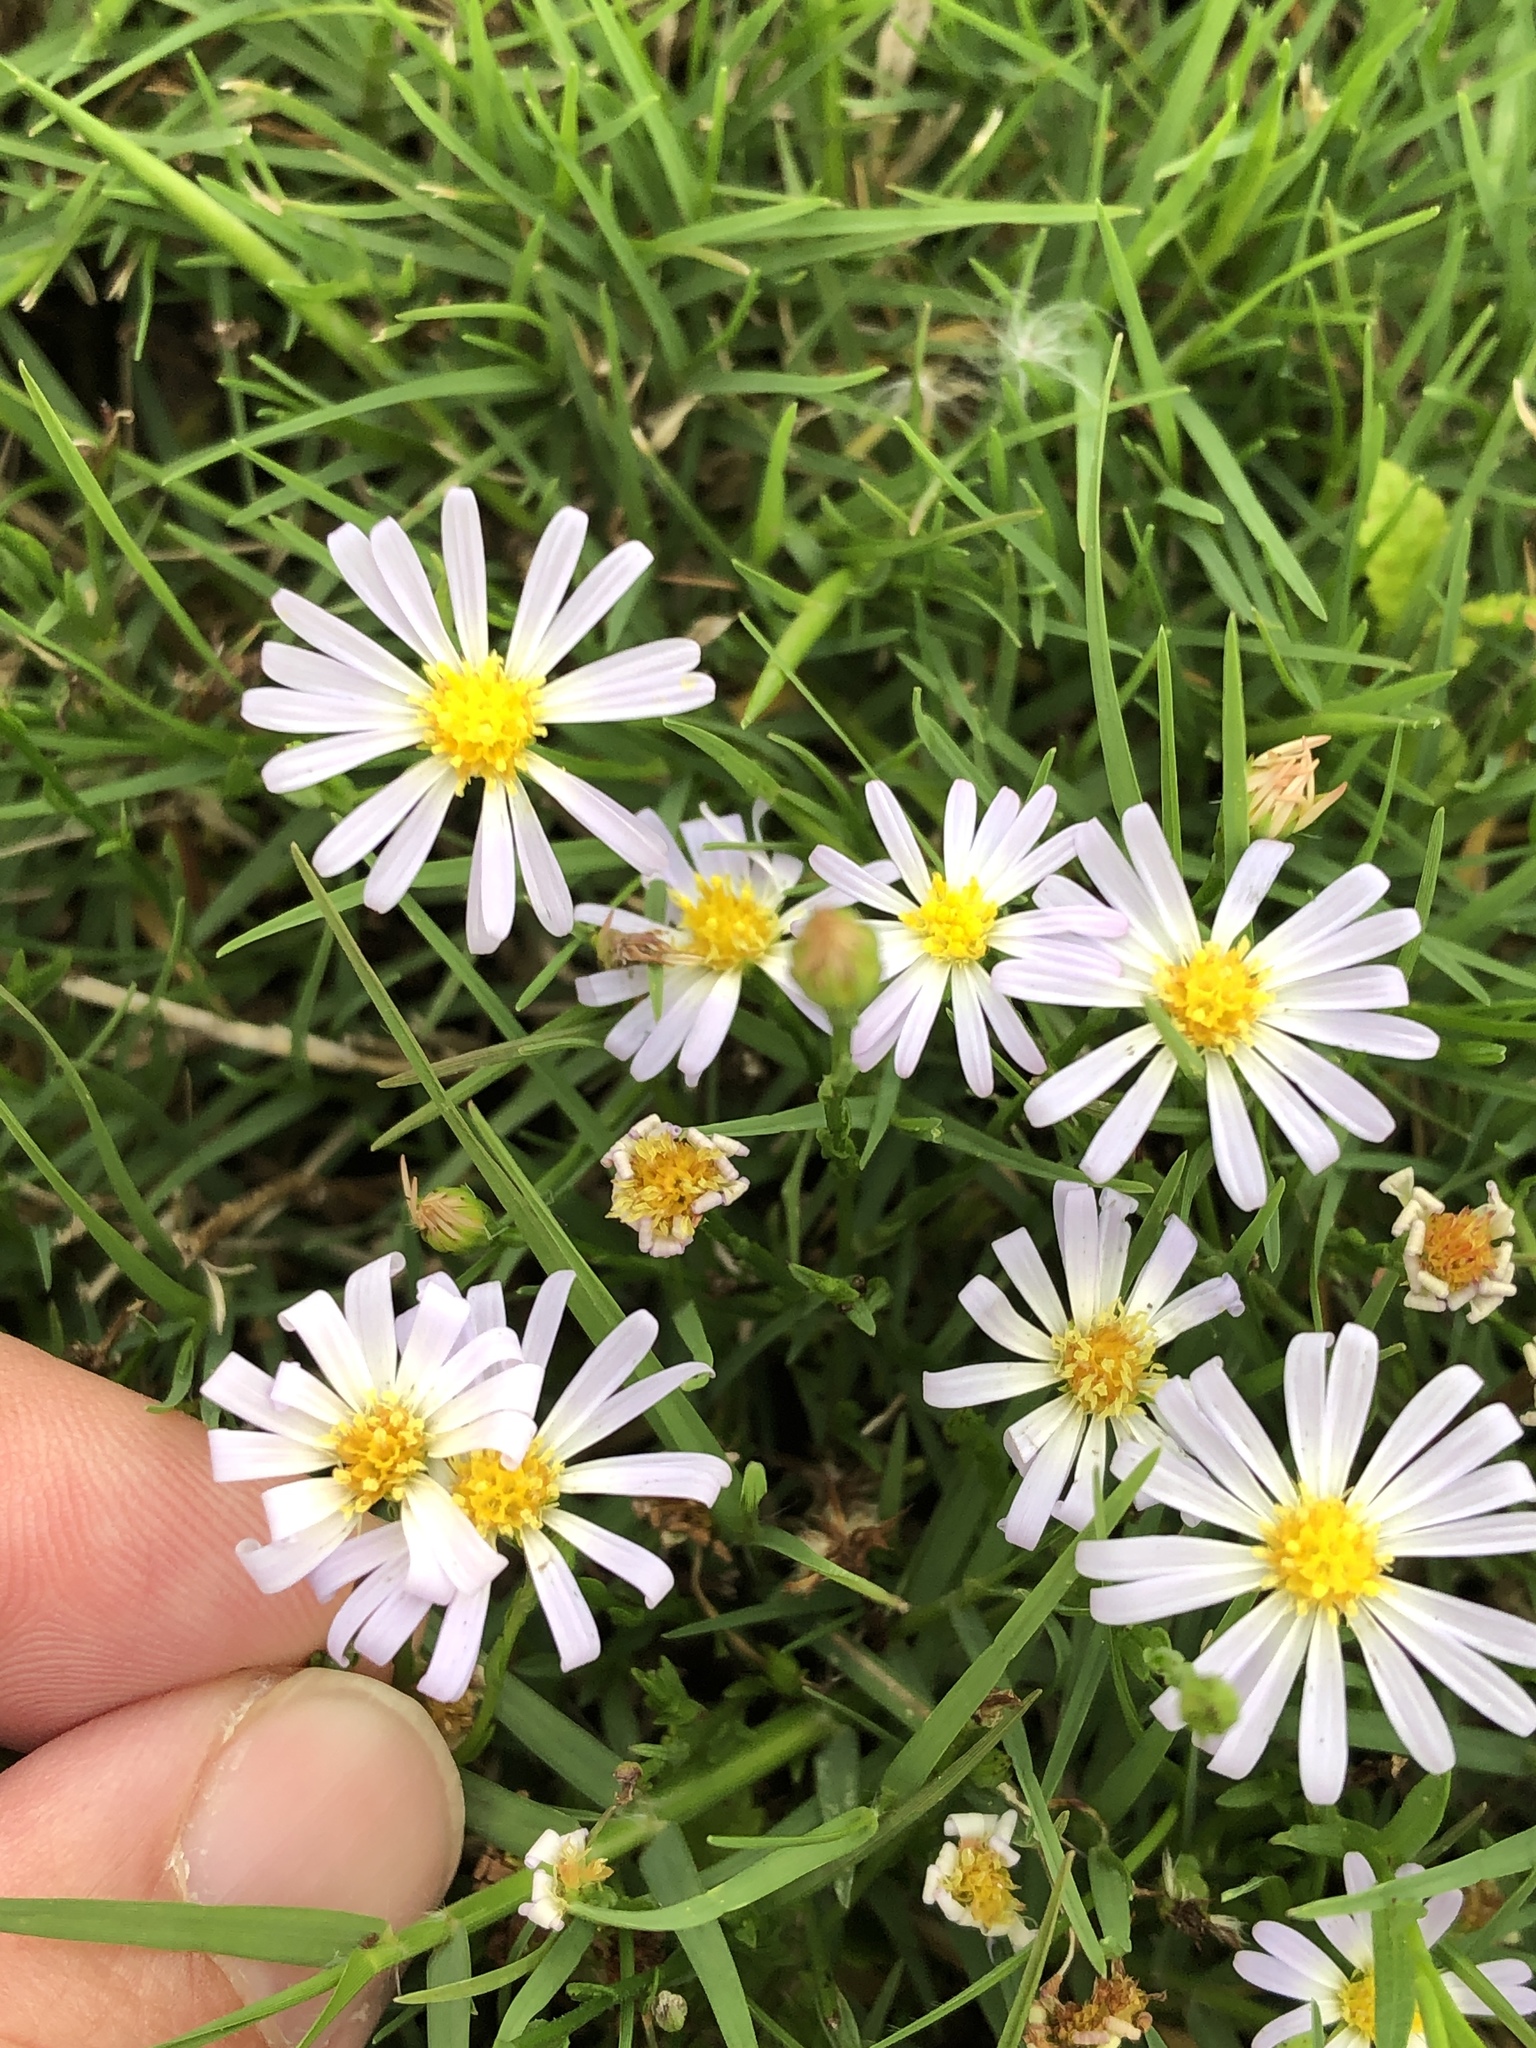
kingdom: Plantae
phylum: Tracheophyta
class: Magnoliopsida
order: Asterales
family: Asteraceae
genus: Symphyotrichum
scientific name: Symphyotrichum divaricatum
